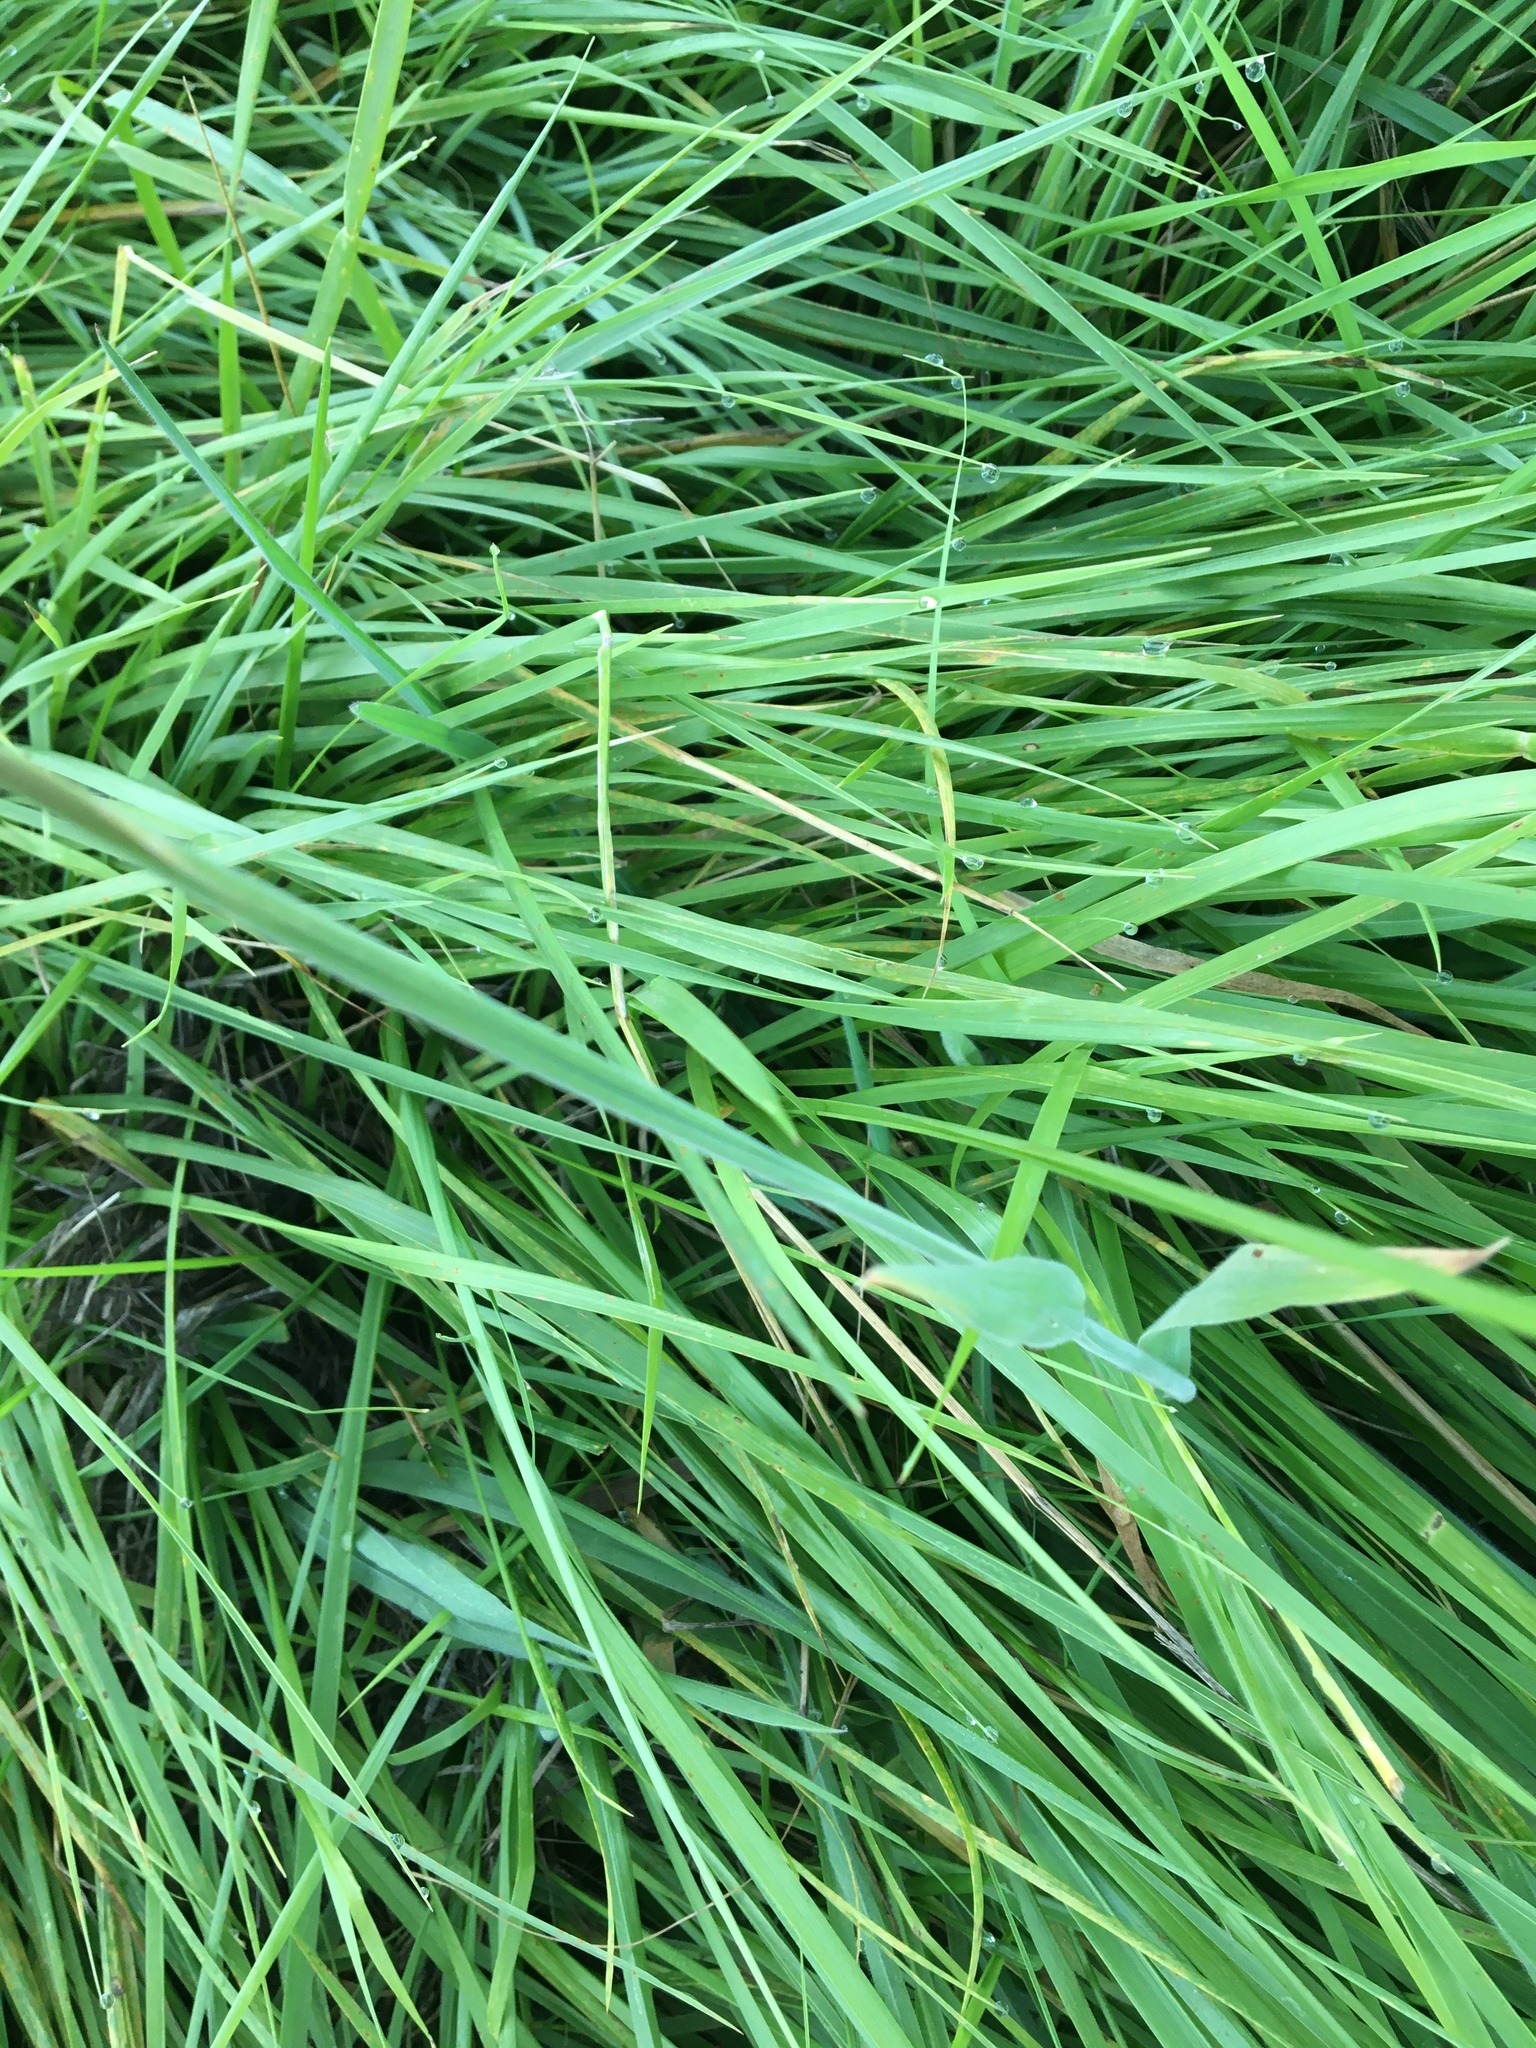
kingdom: Plantae
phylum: Tracheophyta
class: Liliopsida
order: Poales
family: Poaceae
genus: Holcus
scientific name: Holcus lanatus
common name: Yorkshire-fog
